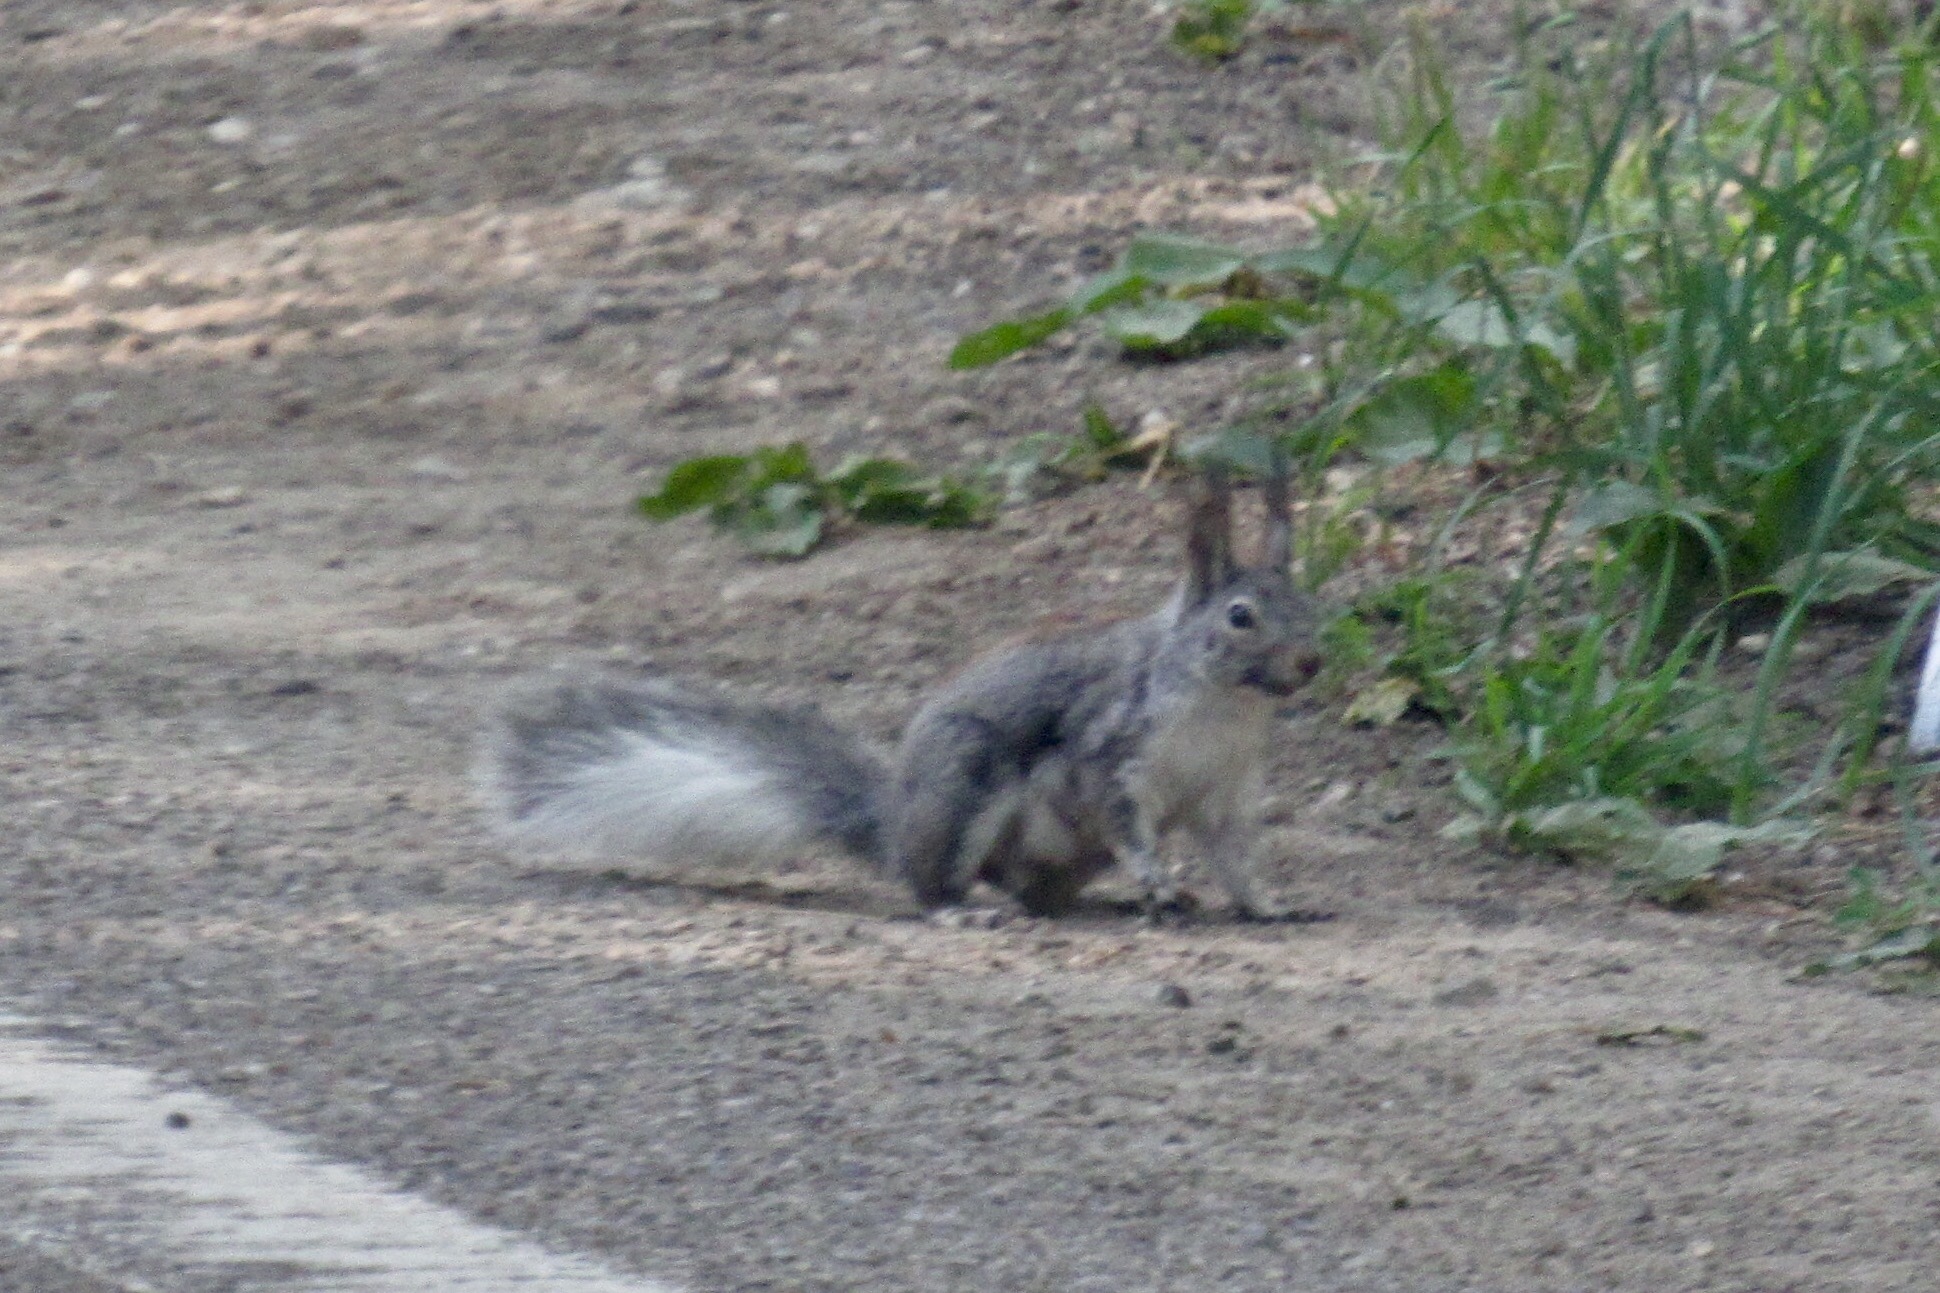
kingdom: Animalia
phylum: Chordata
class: Mammalia
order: Rodentia
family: Sciuridae
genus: Sciurus
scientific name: Sciurus aberti
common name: Abert's squirrel
